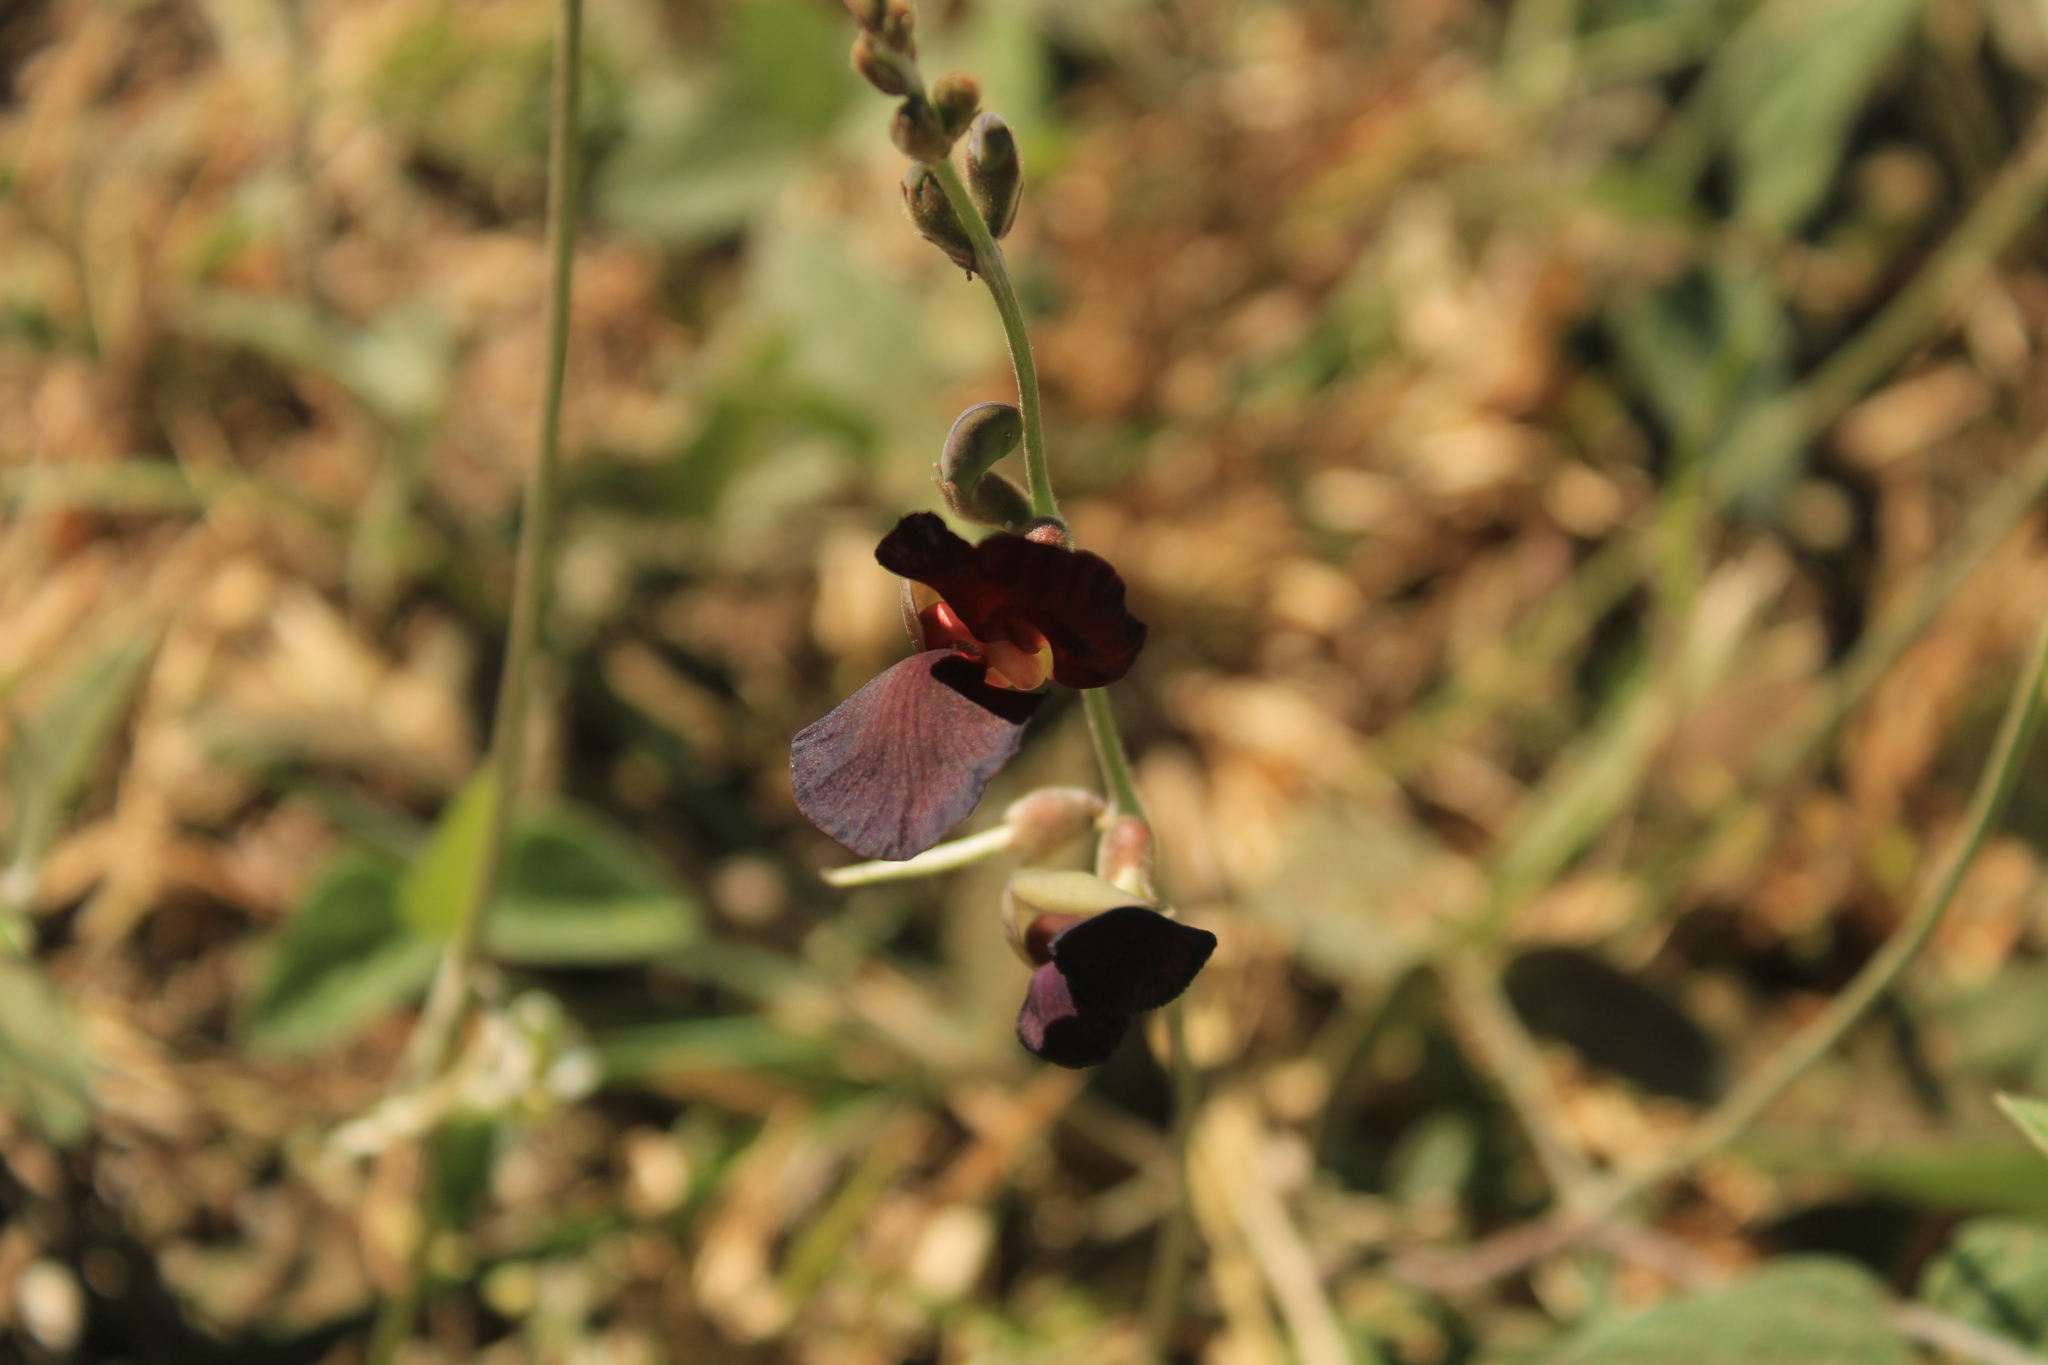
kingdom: Plantae
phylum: Tracheophyta
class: Magnoliopsida
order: Fabales
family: Fabaceae
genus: Macroptilium
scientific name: Macroptilium atropurpureum
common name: Purple bushbean
